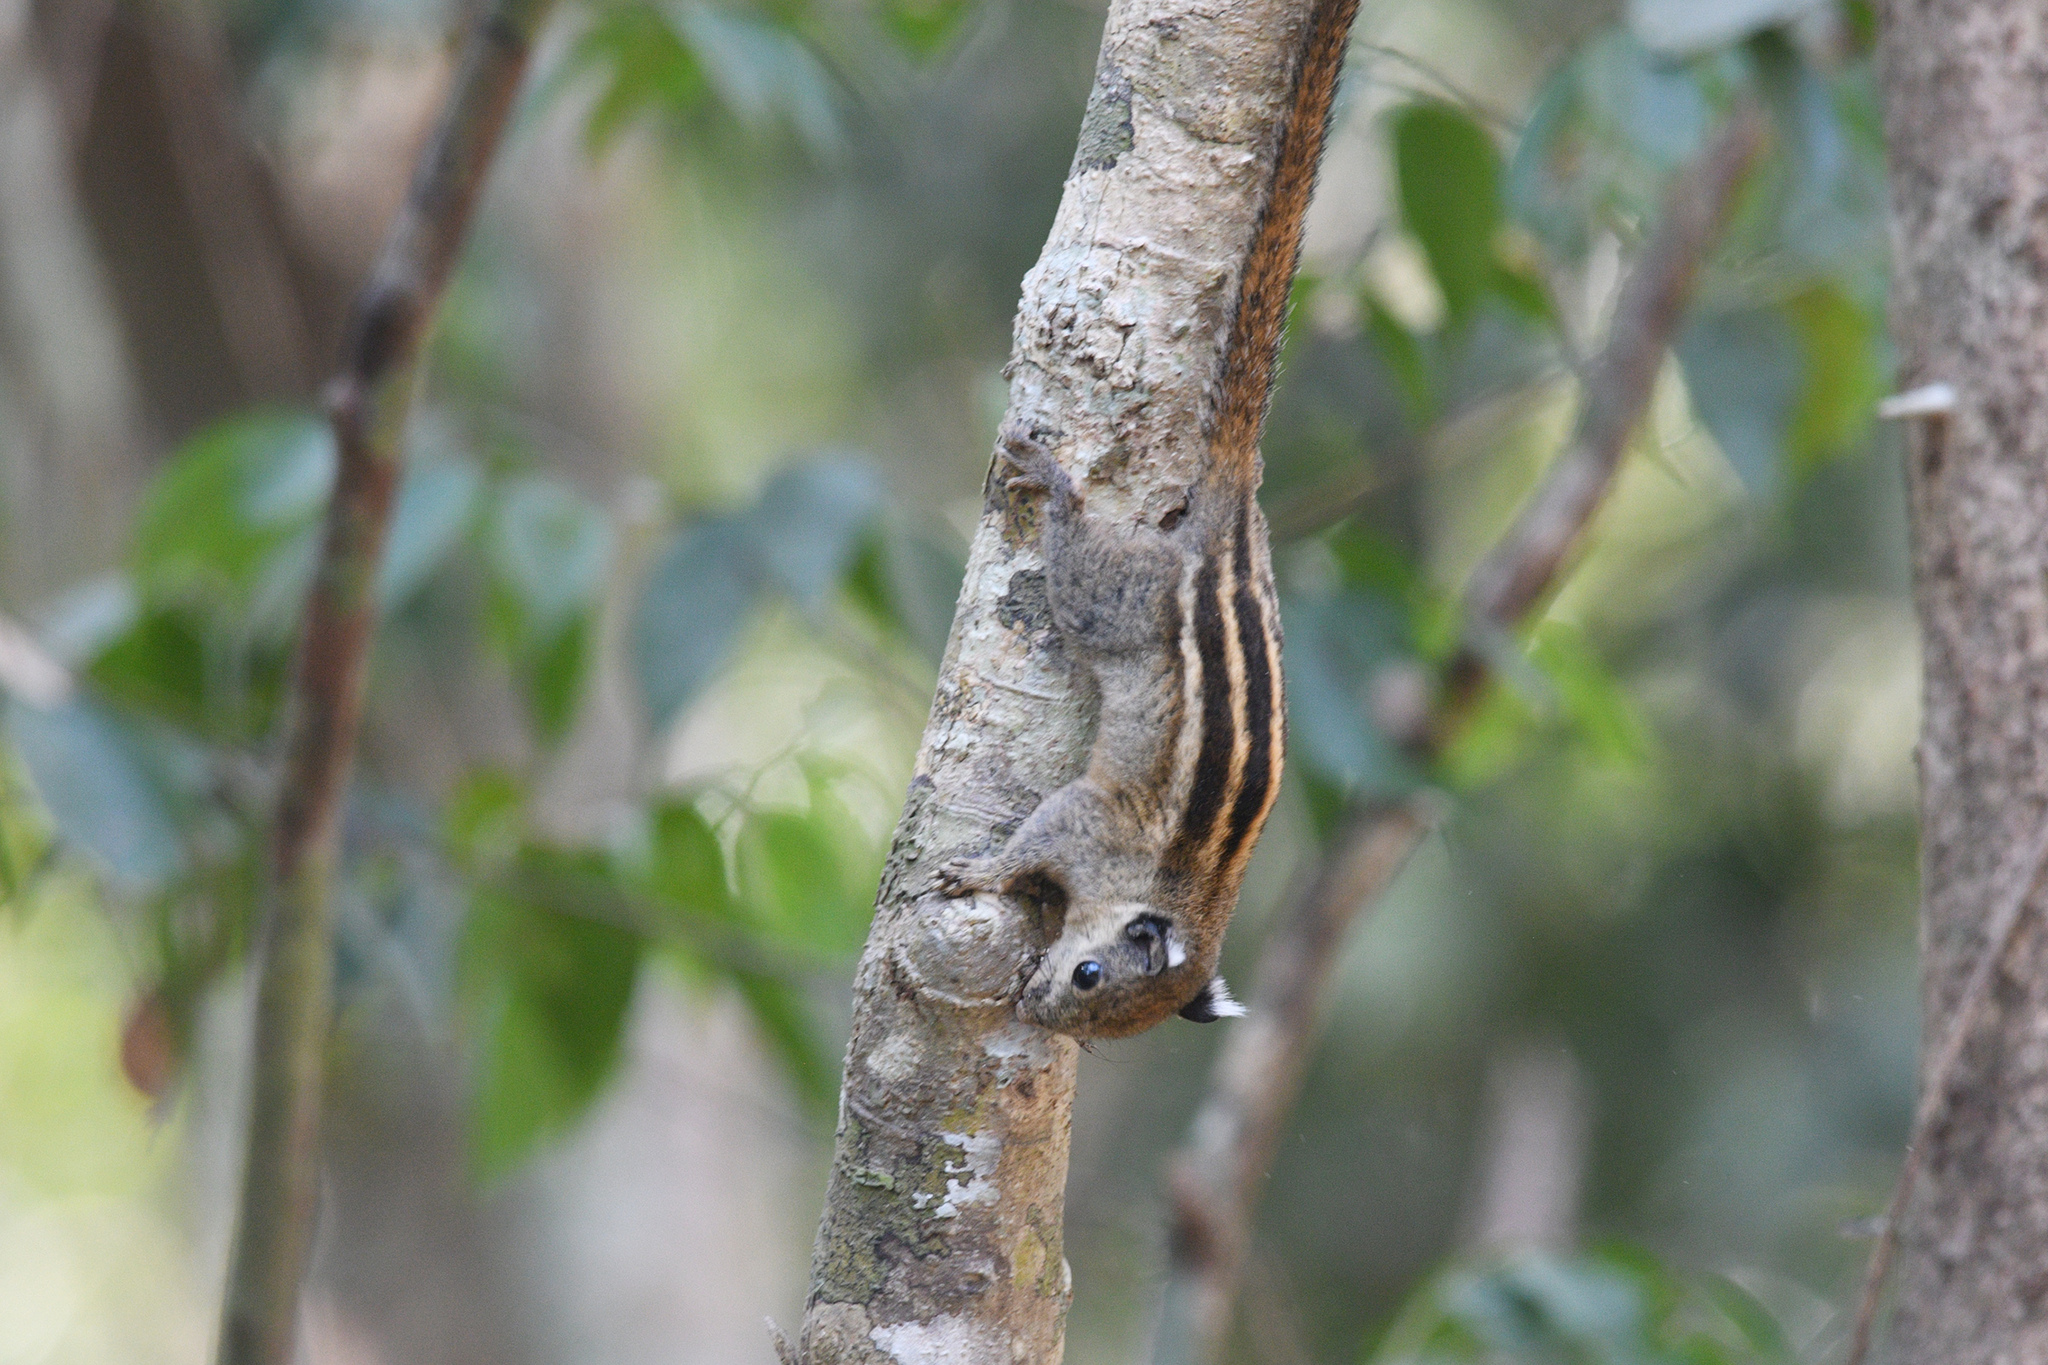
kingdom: Animalia
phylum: Chordata
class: Mammalia
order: Rodentia
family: Sciuridae
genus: Tamiops
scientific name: Tamiops rodolphii
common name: Cambodian striped squirrel
